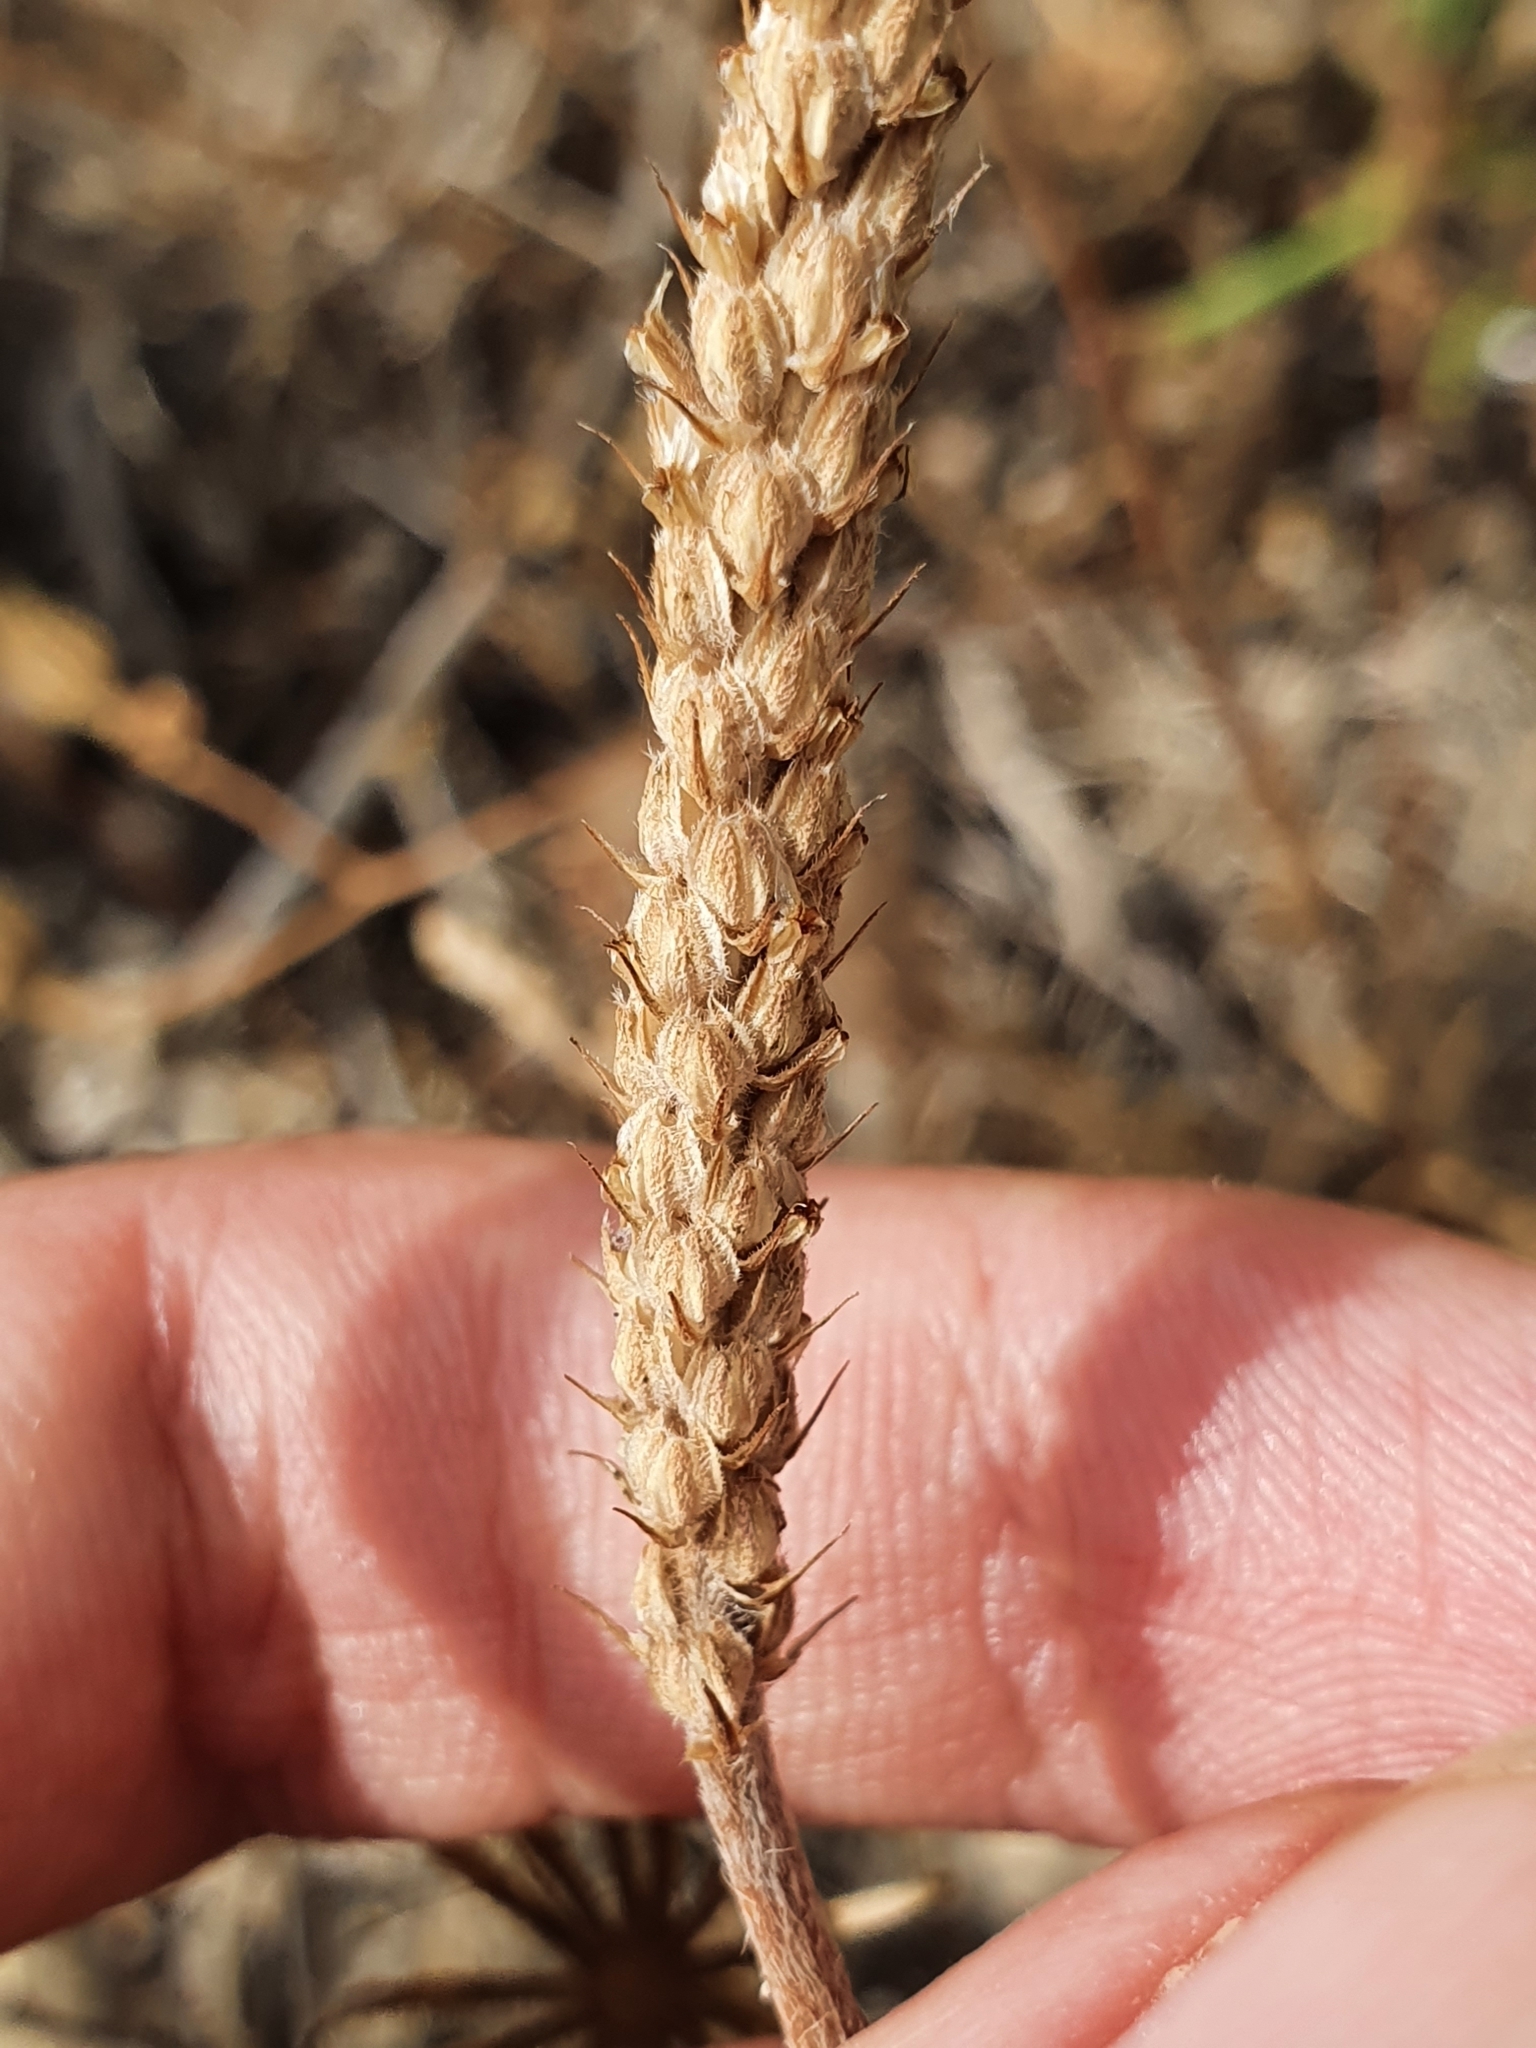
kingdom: Plantae
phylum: Tracheophyta
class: Magnoliopsida
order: Lamiales
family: Plantaginaceae
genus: Plantago
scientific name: Plantago coronopus
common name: Buck's-horn plantain
